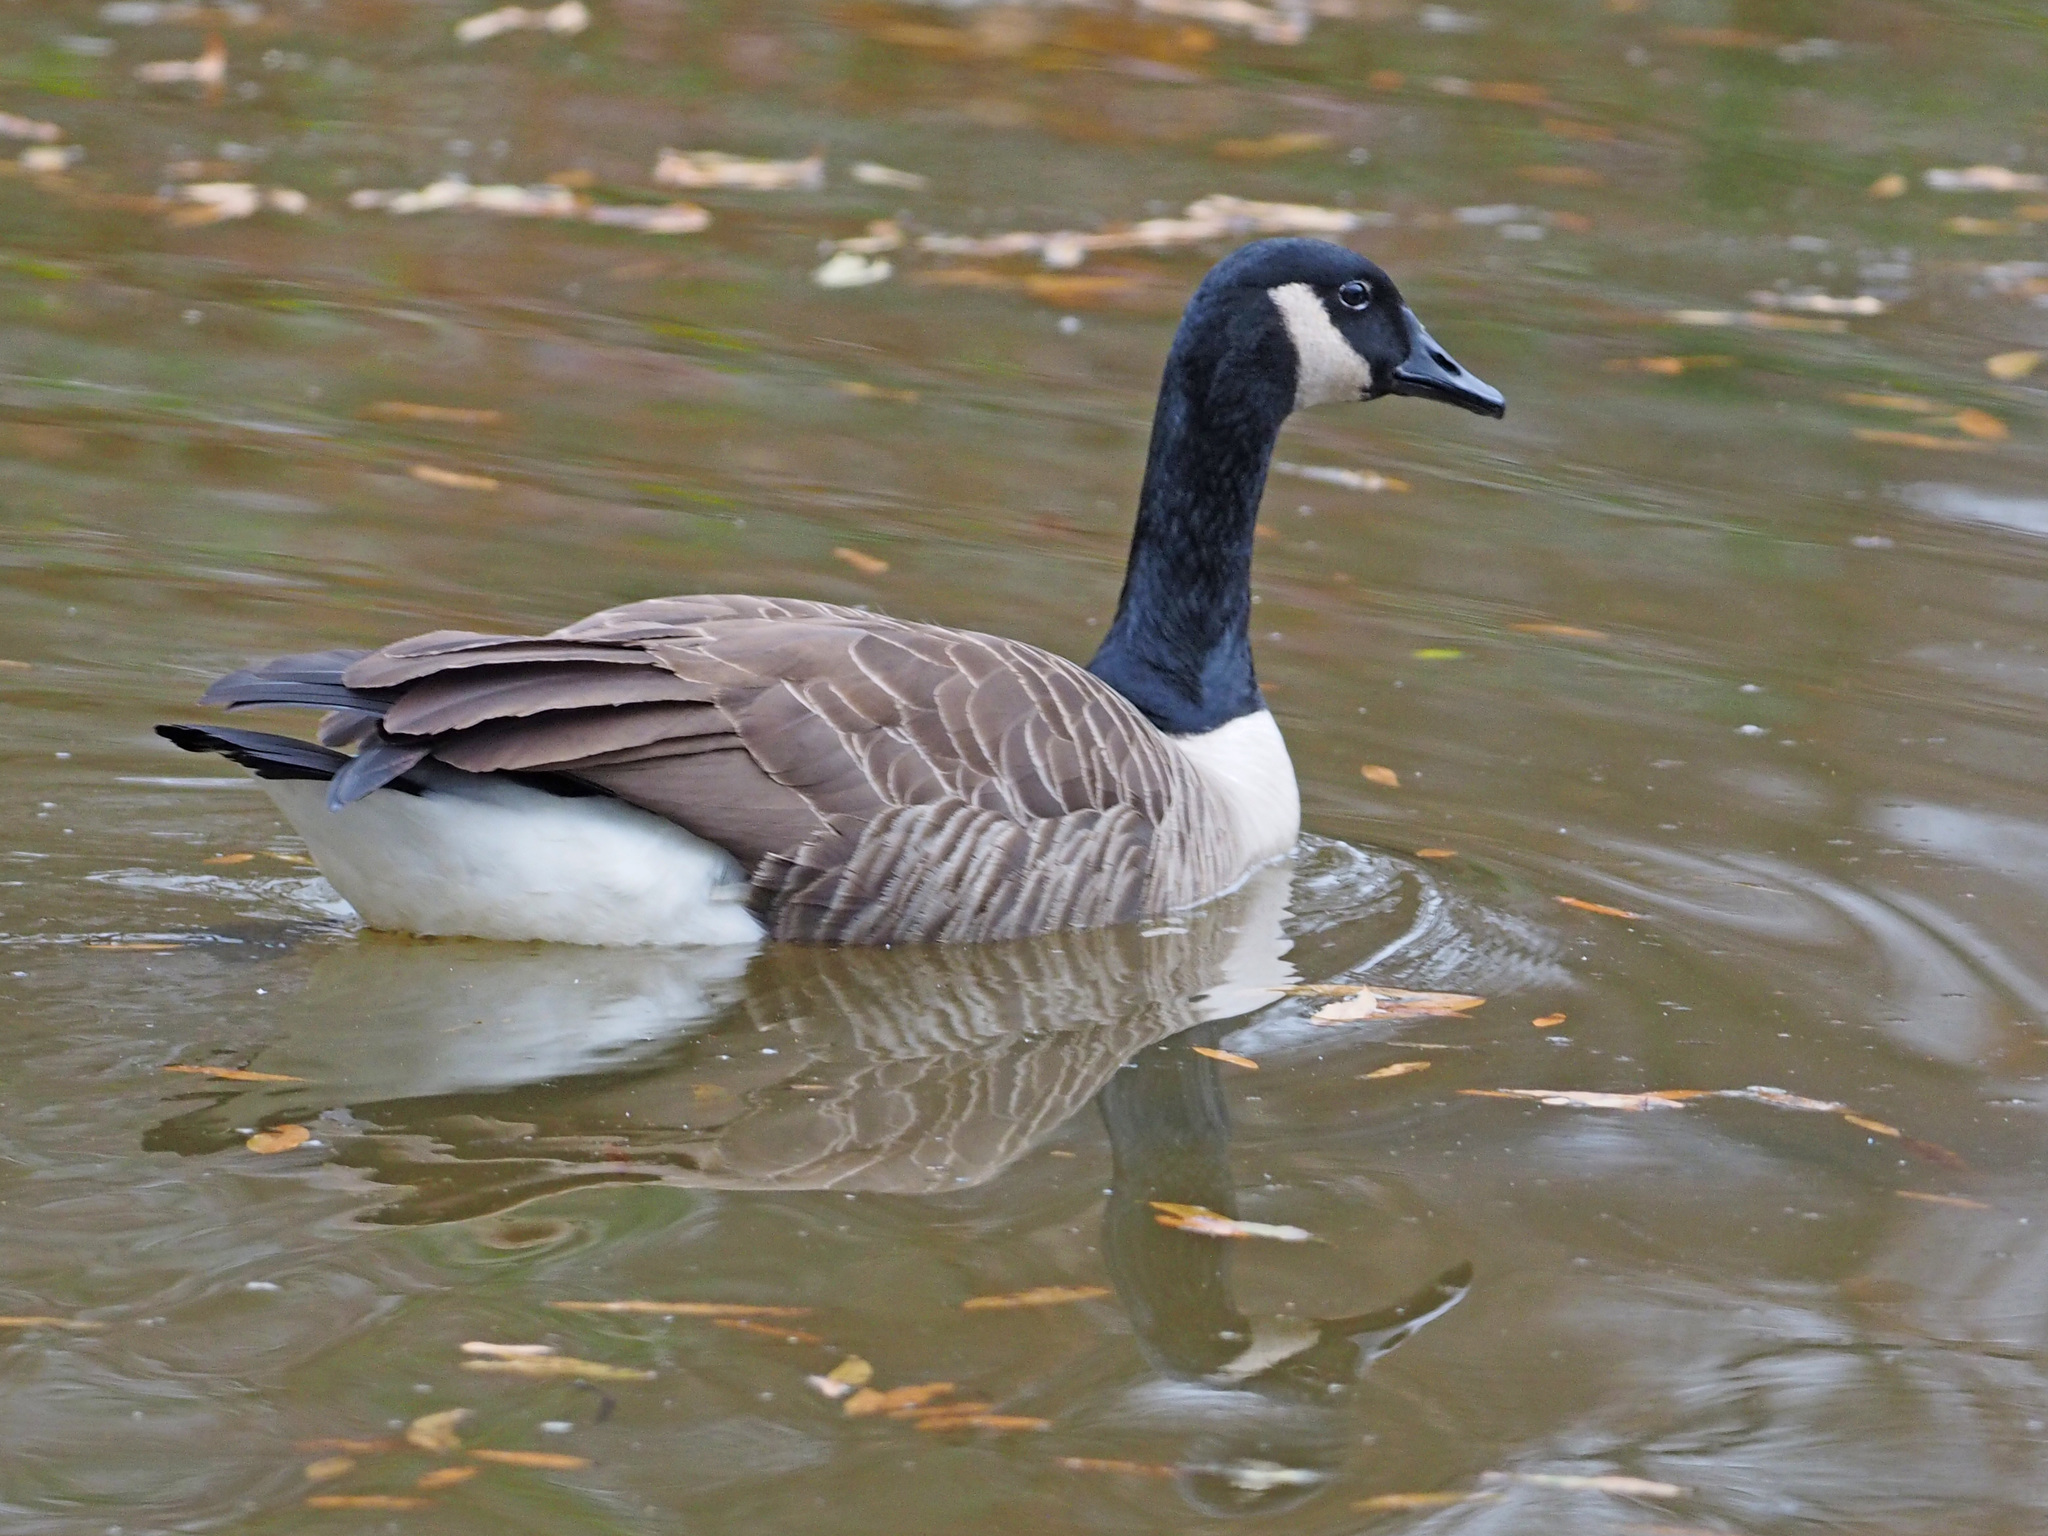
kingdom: Animalia
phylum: Chordata
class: Aves
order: Anseriformes
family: Anatidae
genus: Branta
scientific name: Branta canadensis
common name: Canada goose
